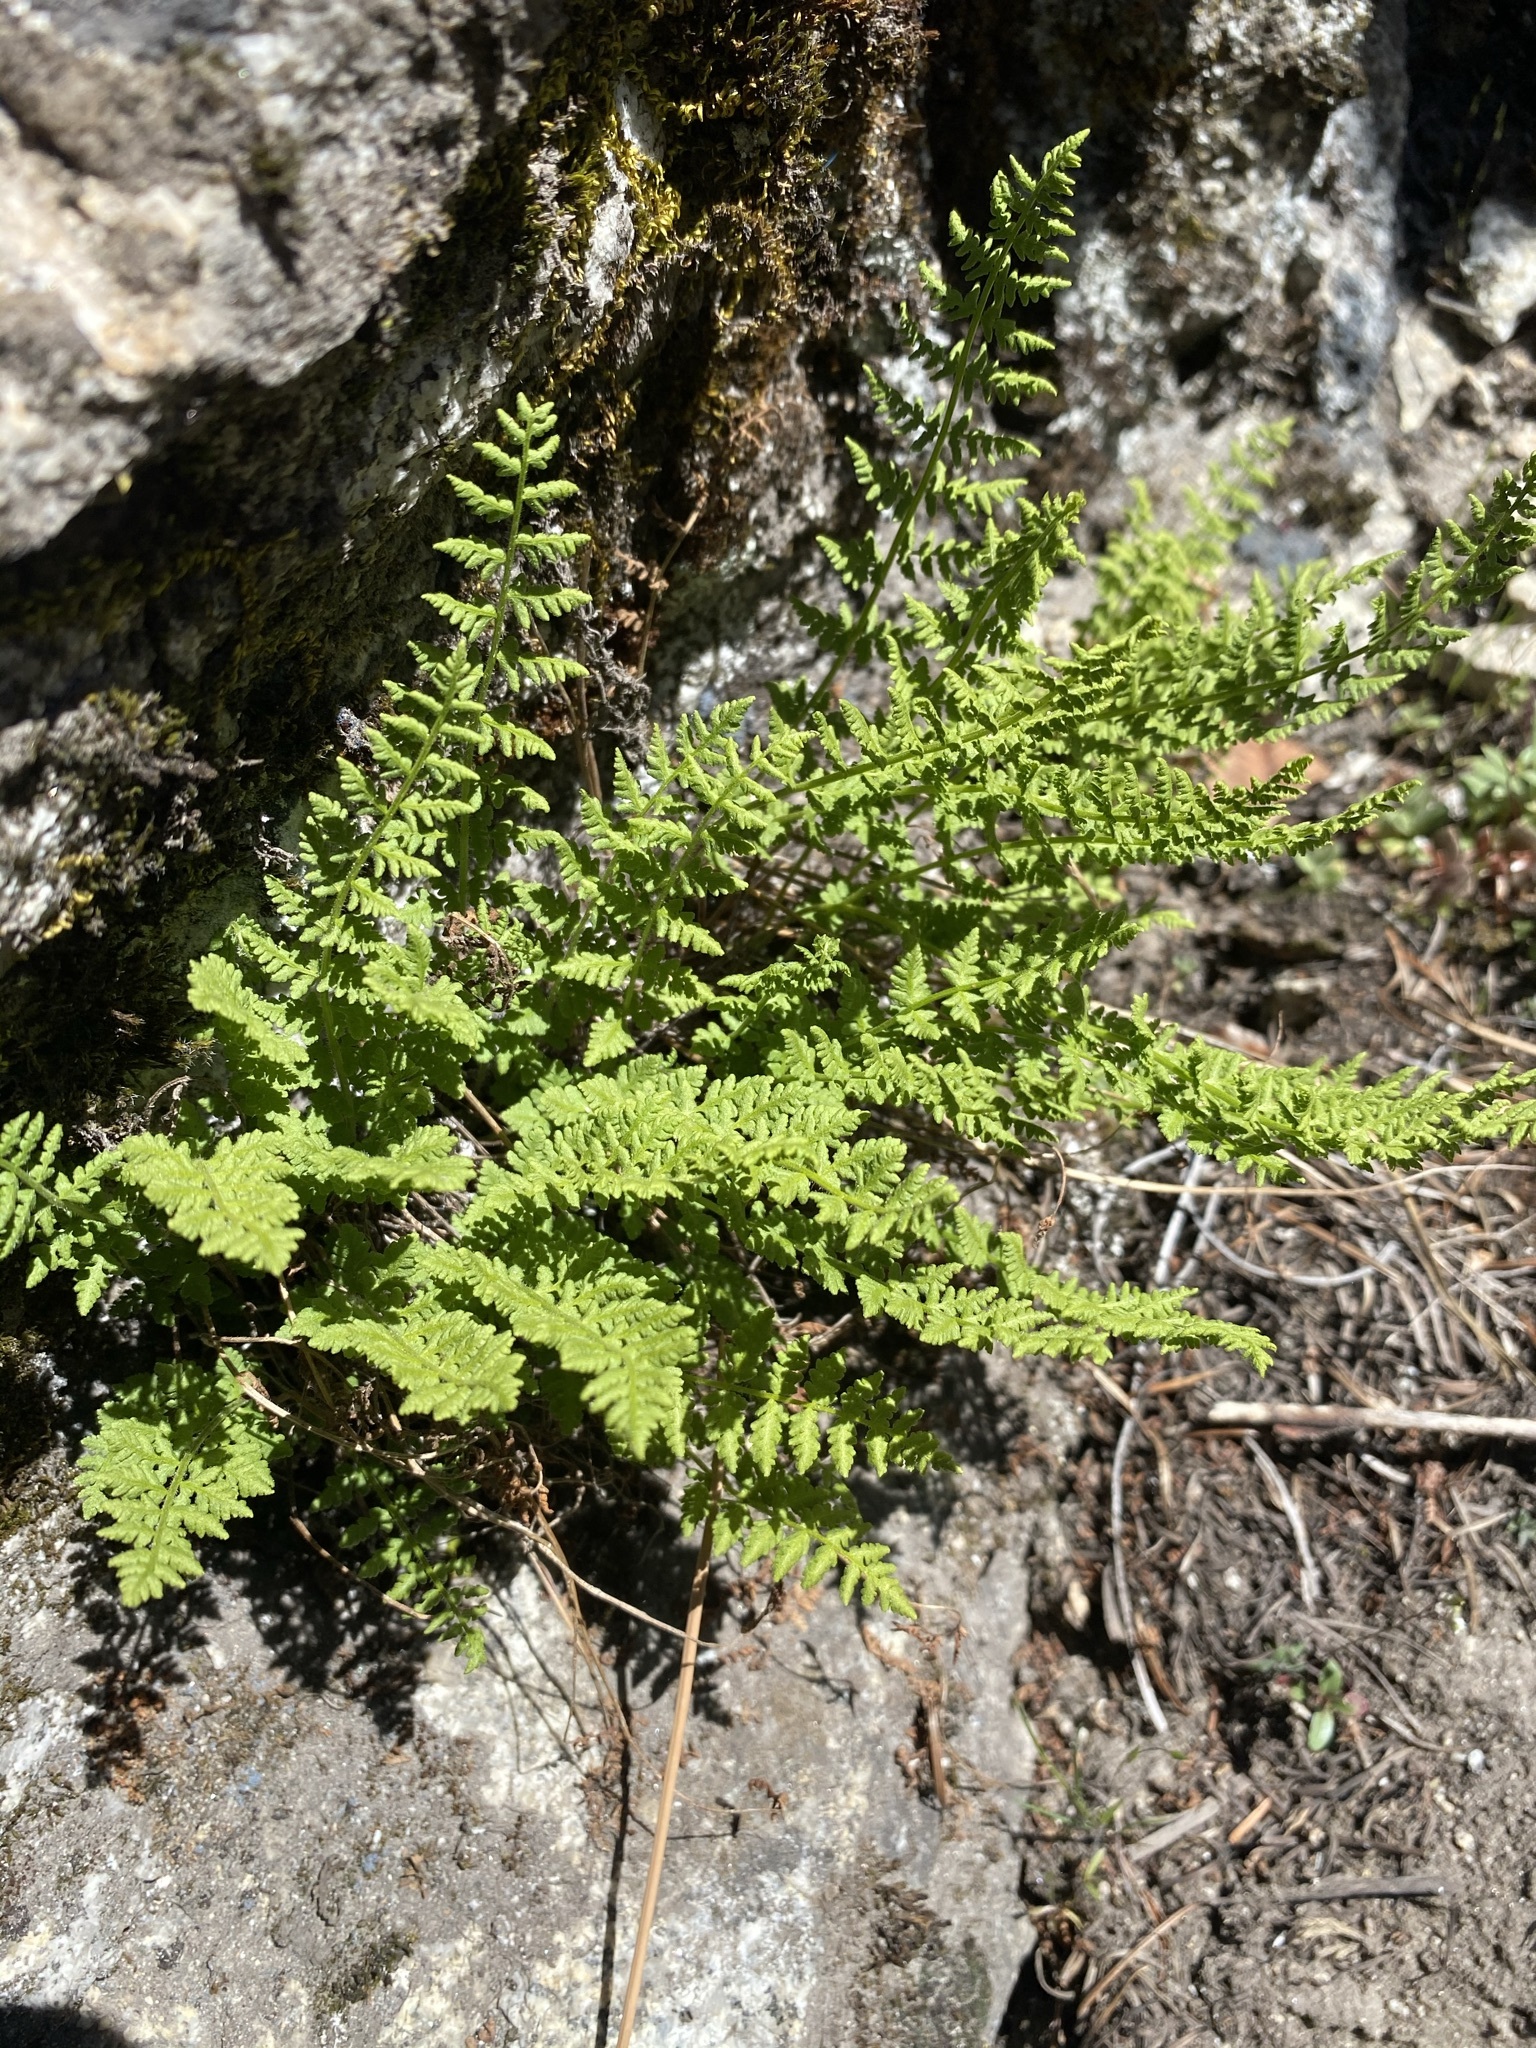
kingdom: Plantae
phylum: Tracheophyta
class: Polypodiopsida
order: Polypodiales
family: Woodsiaceae
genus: Physematium
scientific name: Physematium scopulinum
